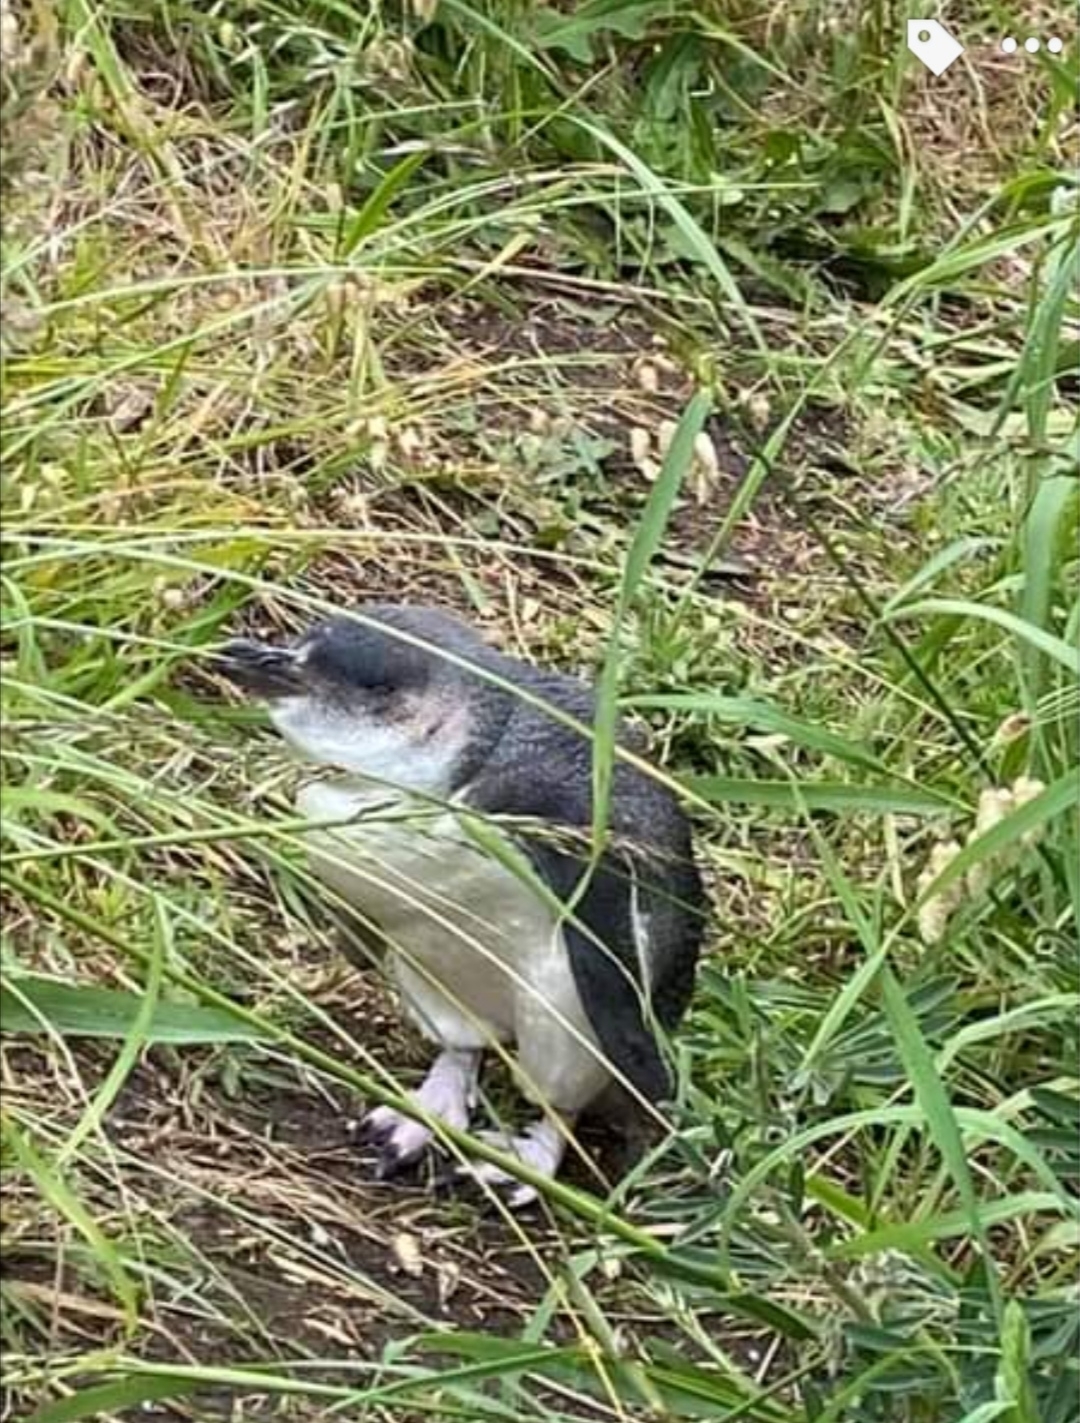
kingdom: Animalia
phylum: Chordata
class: Aves
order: Sphenisciformes
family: Spheniscidae
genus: Eudyptula
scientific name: Eudyptula minor
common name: Little penguin
